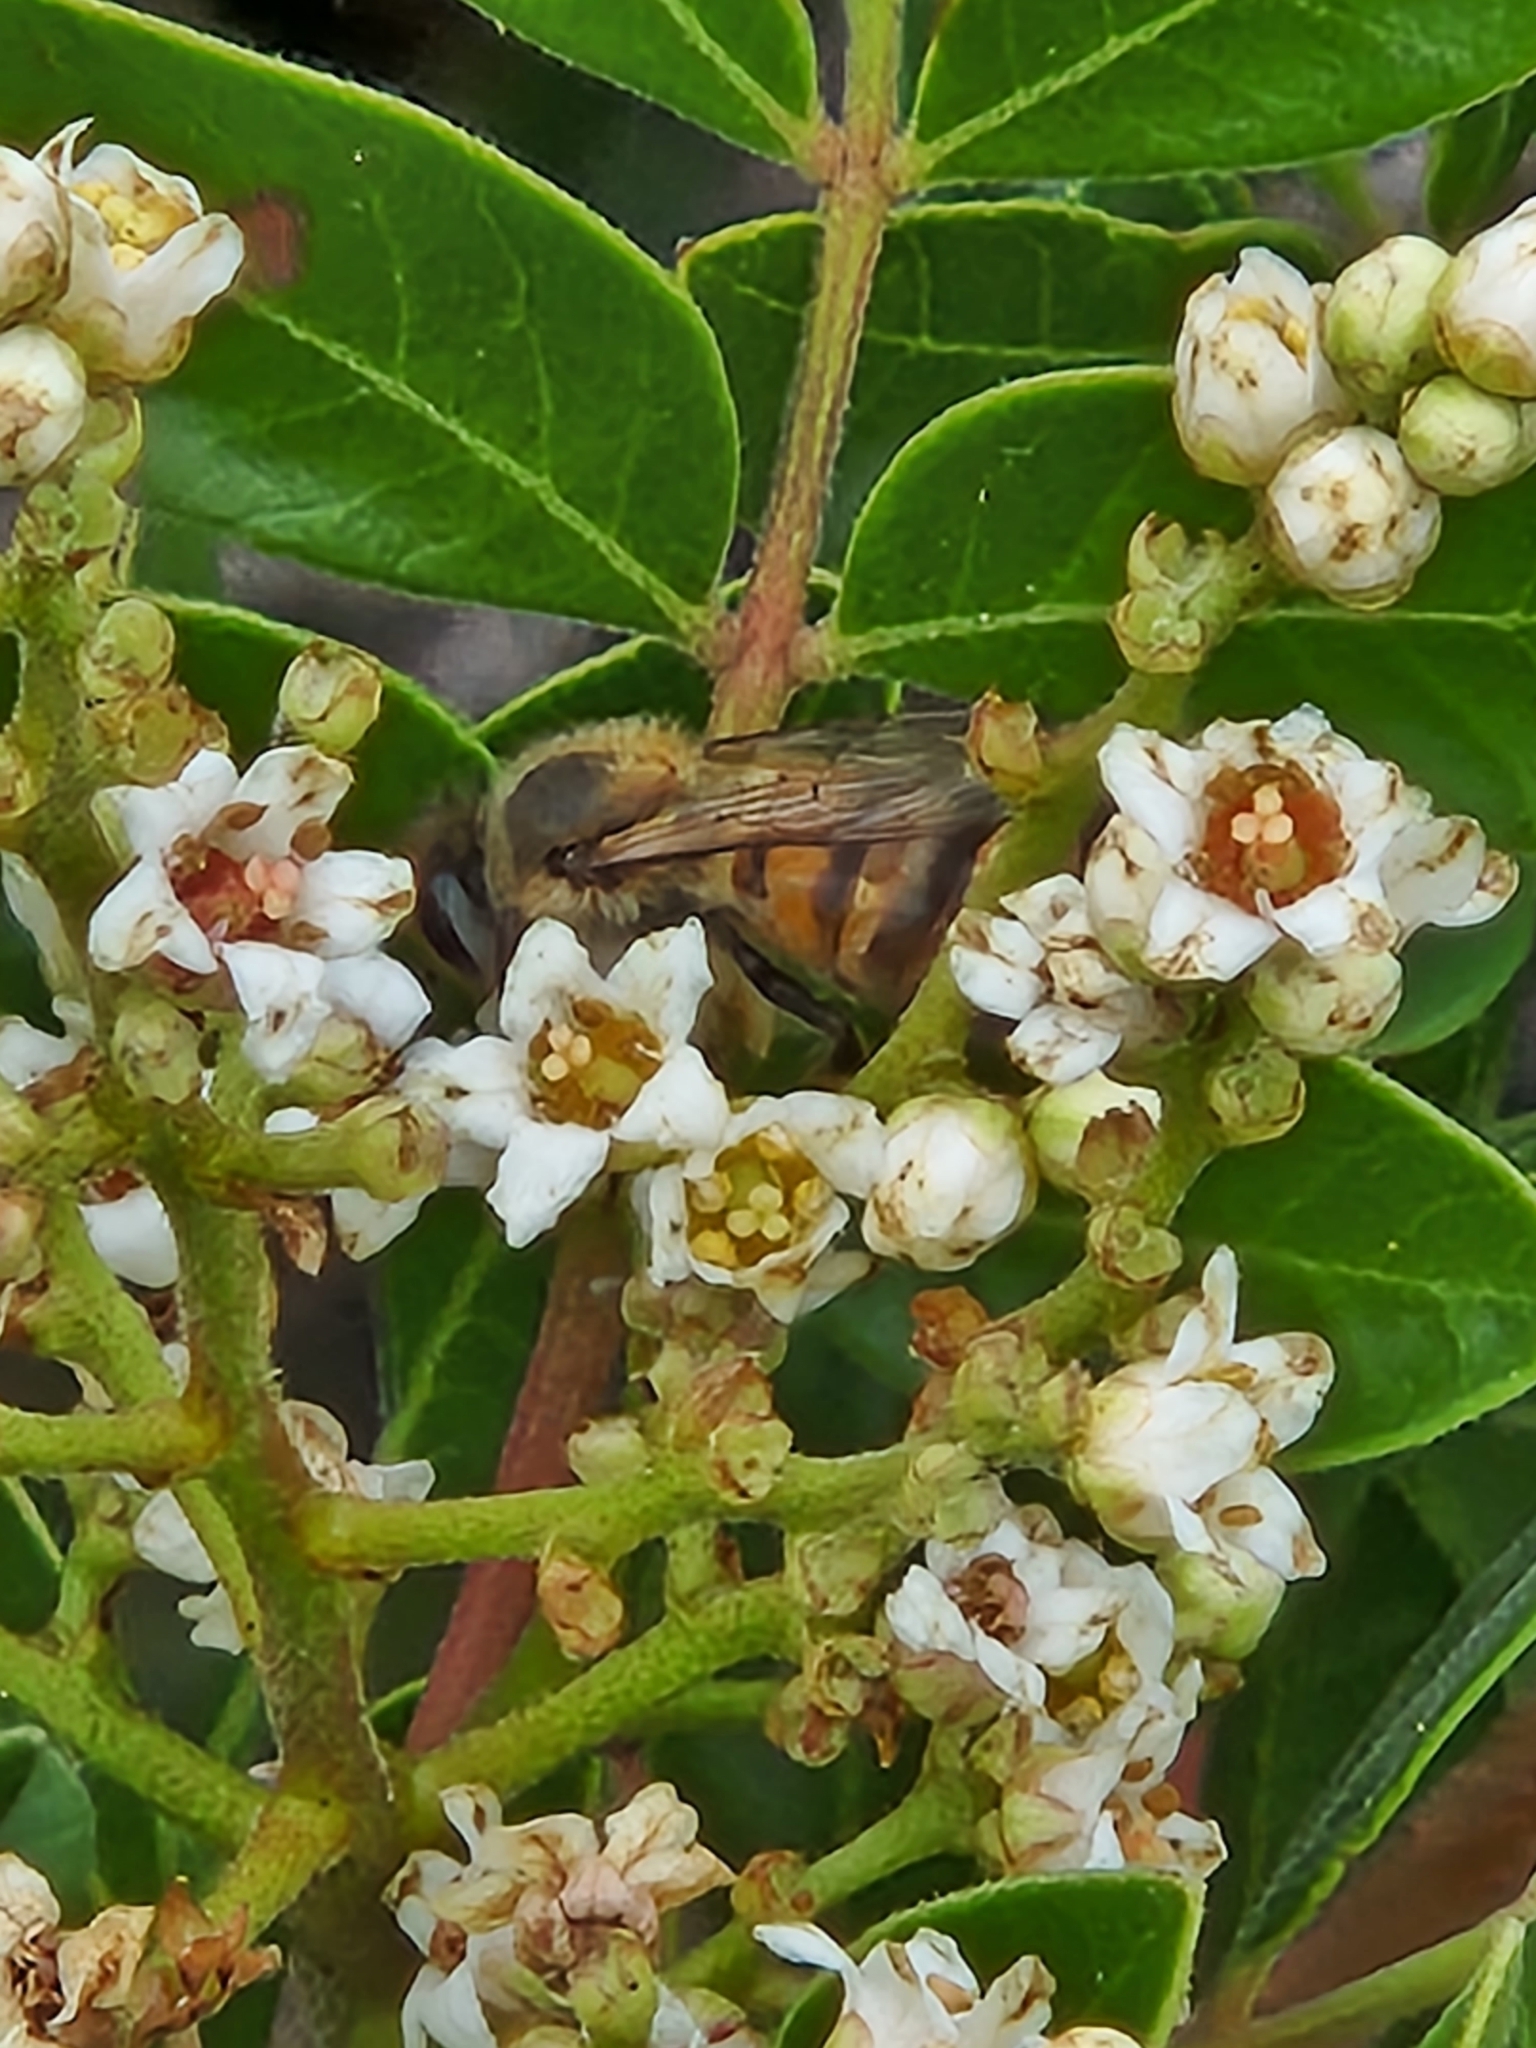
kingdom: Animalia
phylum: Arthropoda
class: Insecta
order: Hymenoptera
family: Apidae
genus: Apis
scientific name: Apis mellifera
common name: Honey bee
